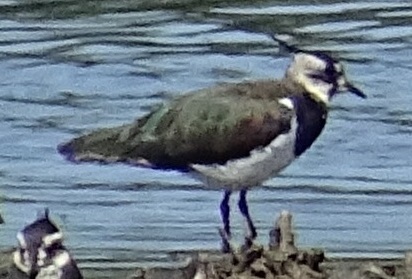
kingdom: Animalia
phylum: Chordata
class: Aves
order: Charadriiformes
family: Charadriidae
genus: Vanellus
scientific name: Vanellus vanellus
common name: Northern lapwing
